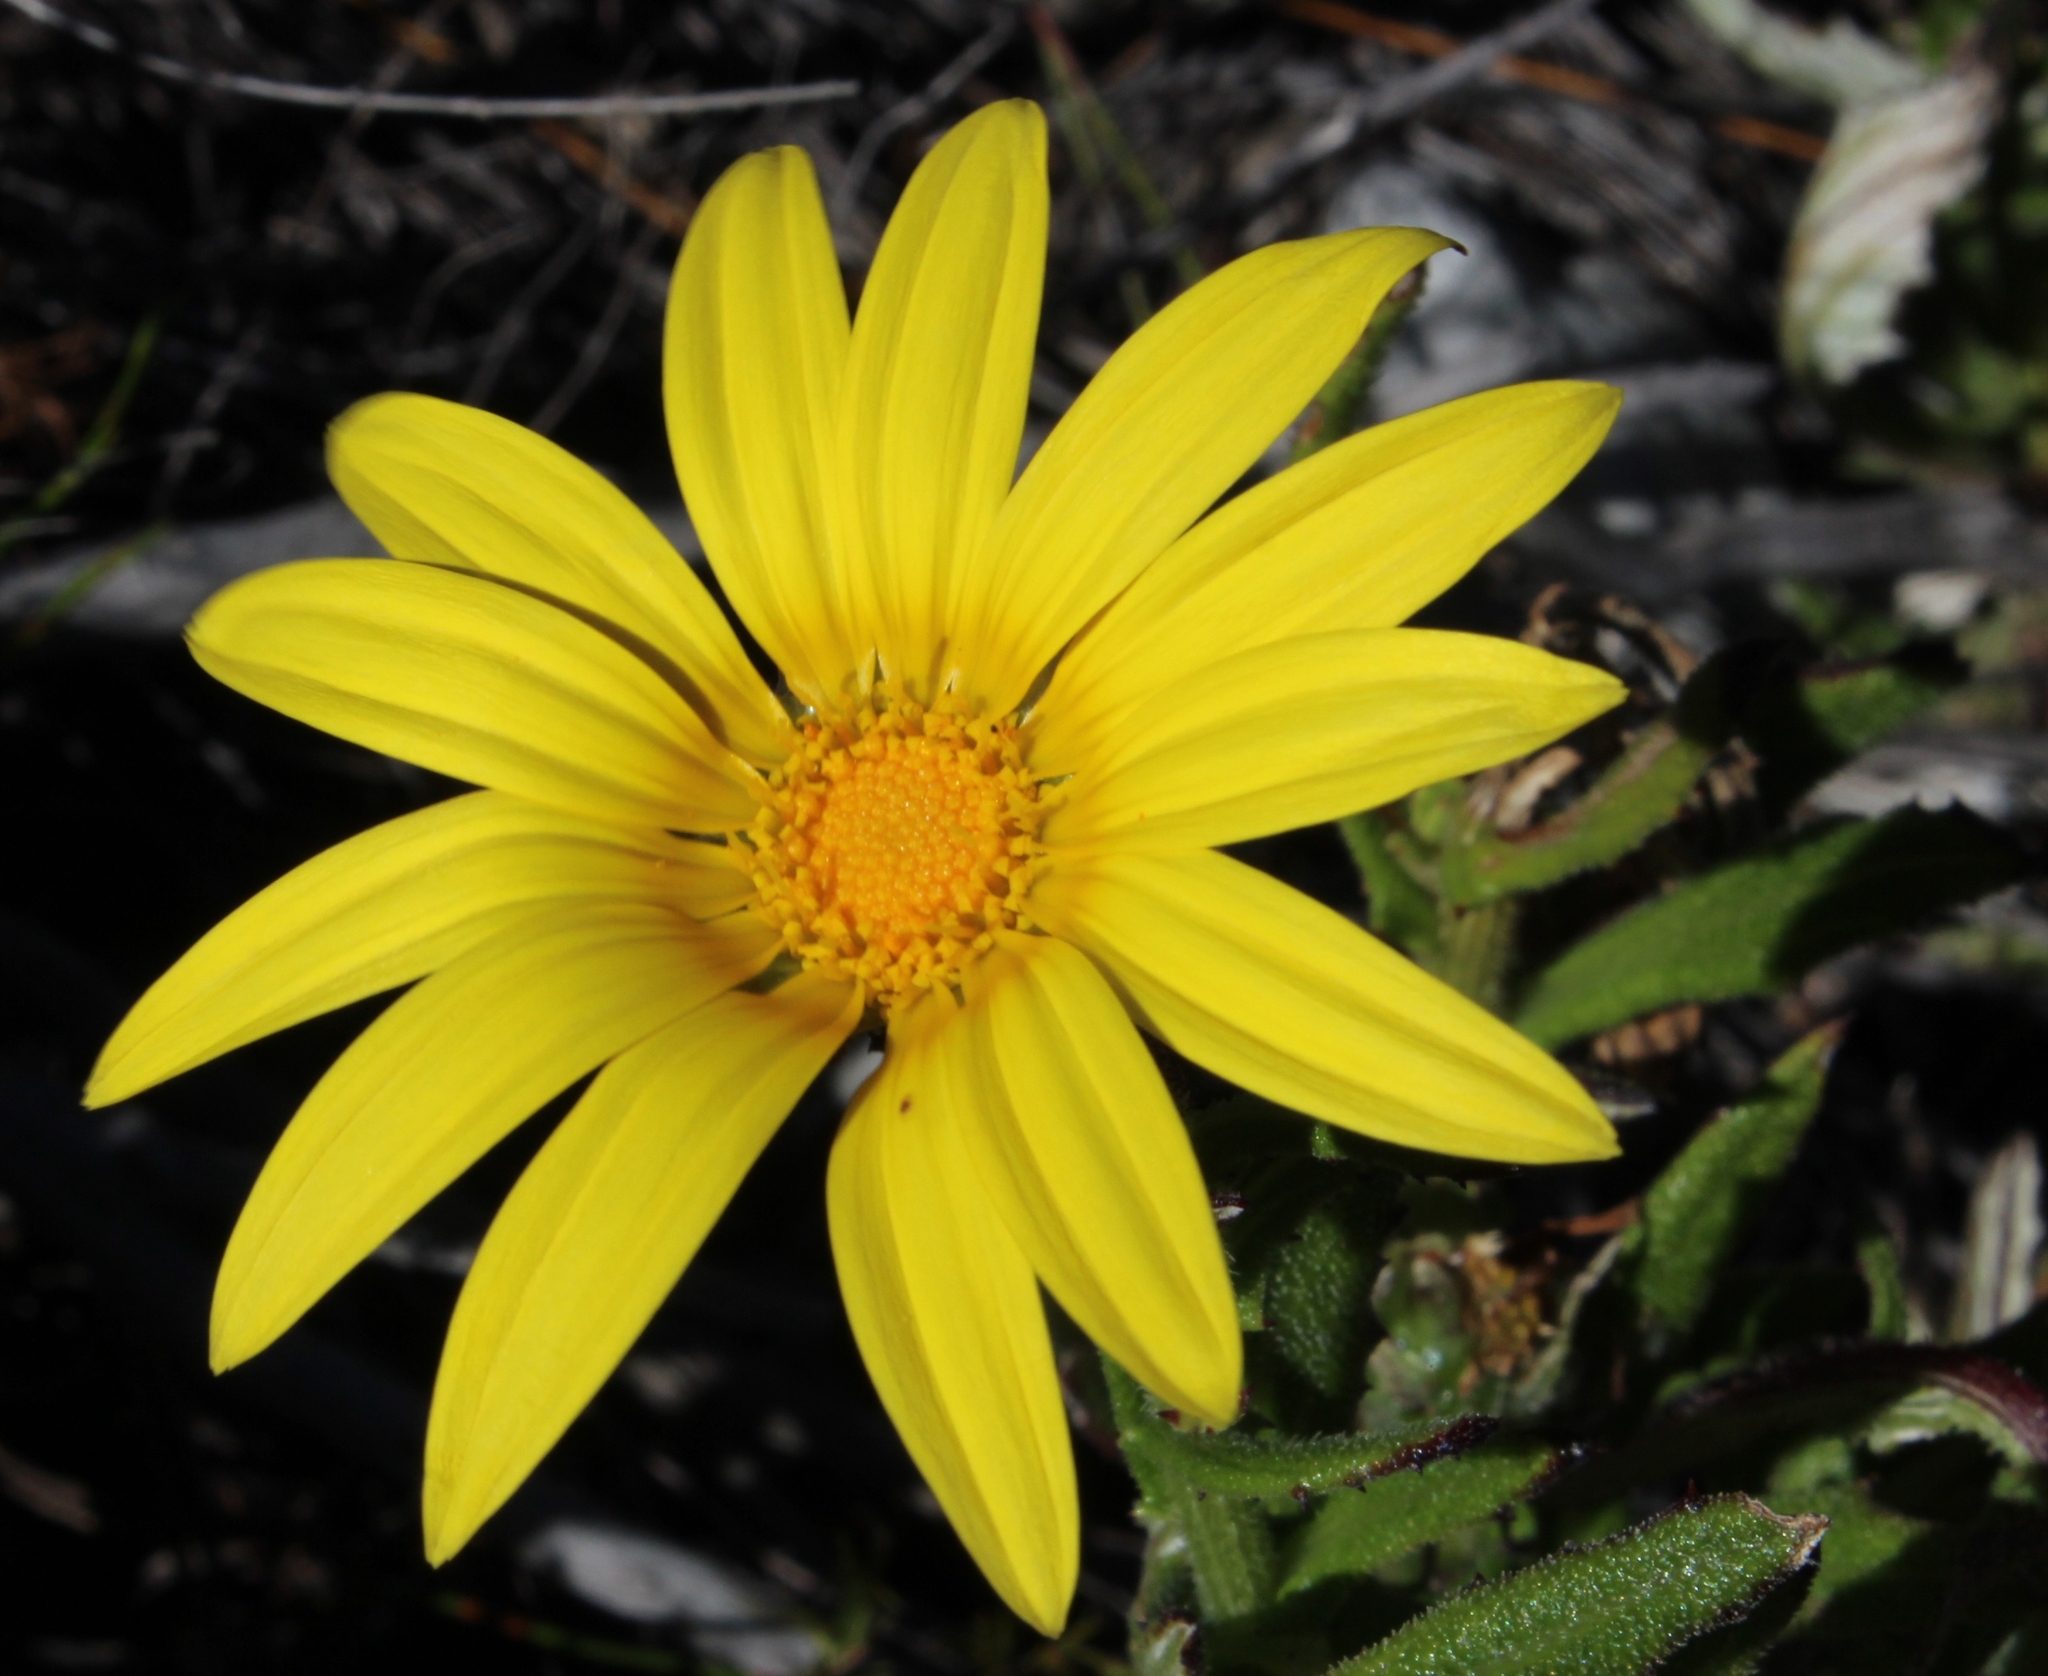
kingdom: Plantae
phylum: Tracheophyta
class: Magnoliopsida
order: Asterales
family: Asteraceae
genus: Arctotis
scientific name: Arctotis scabra
